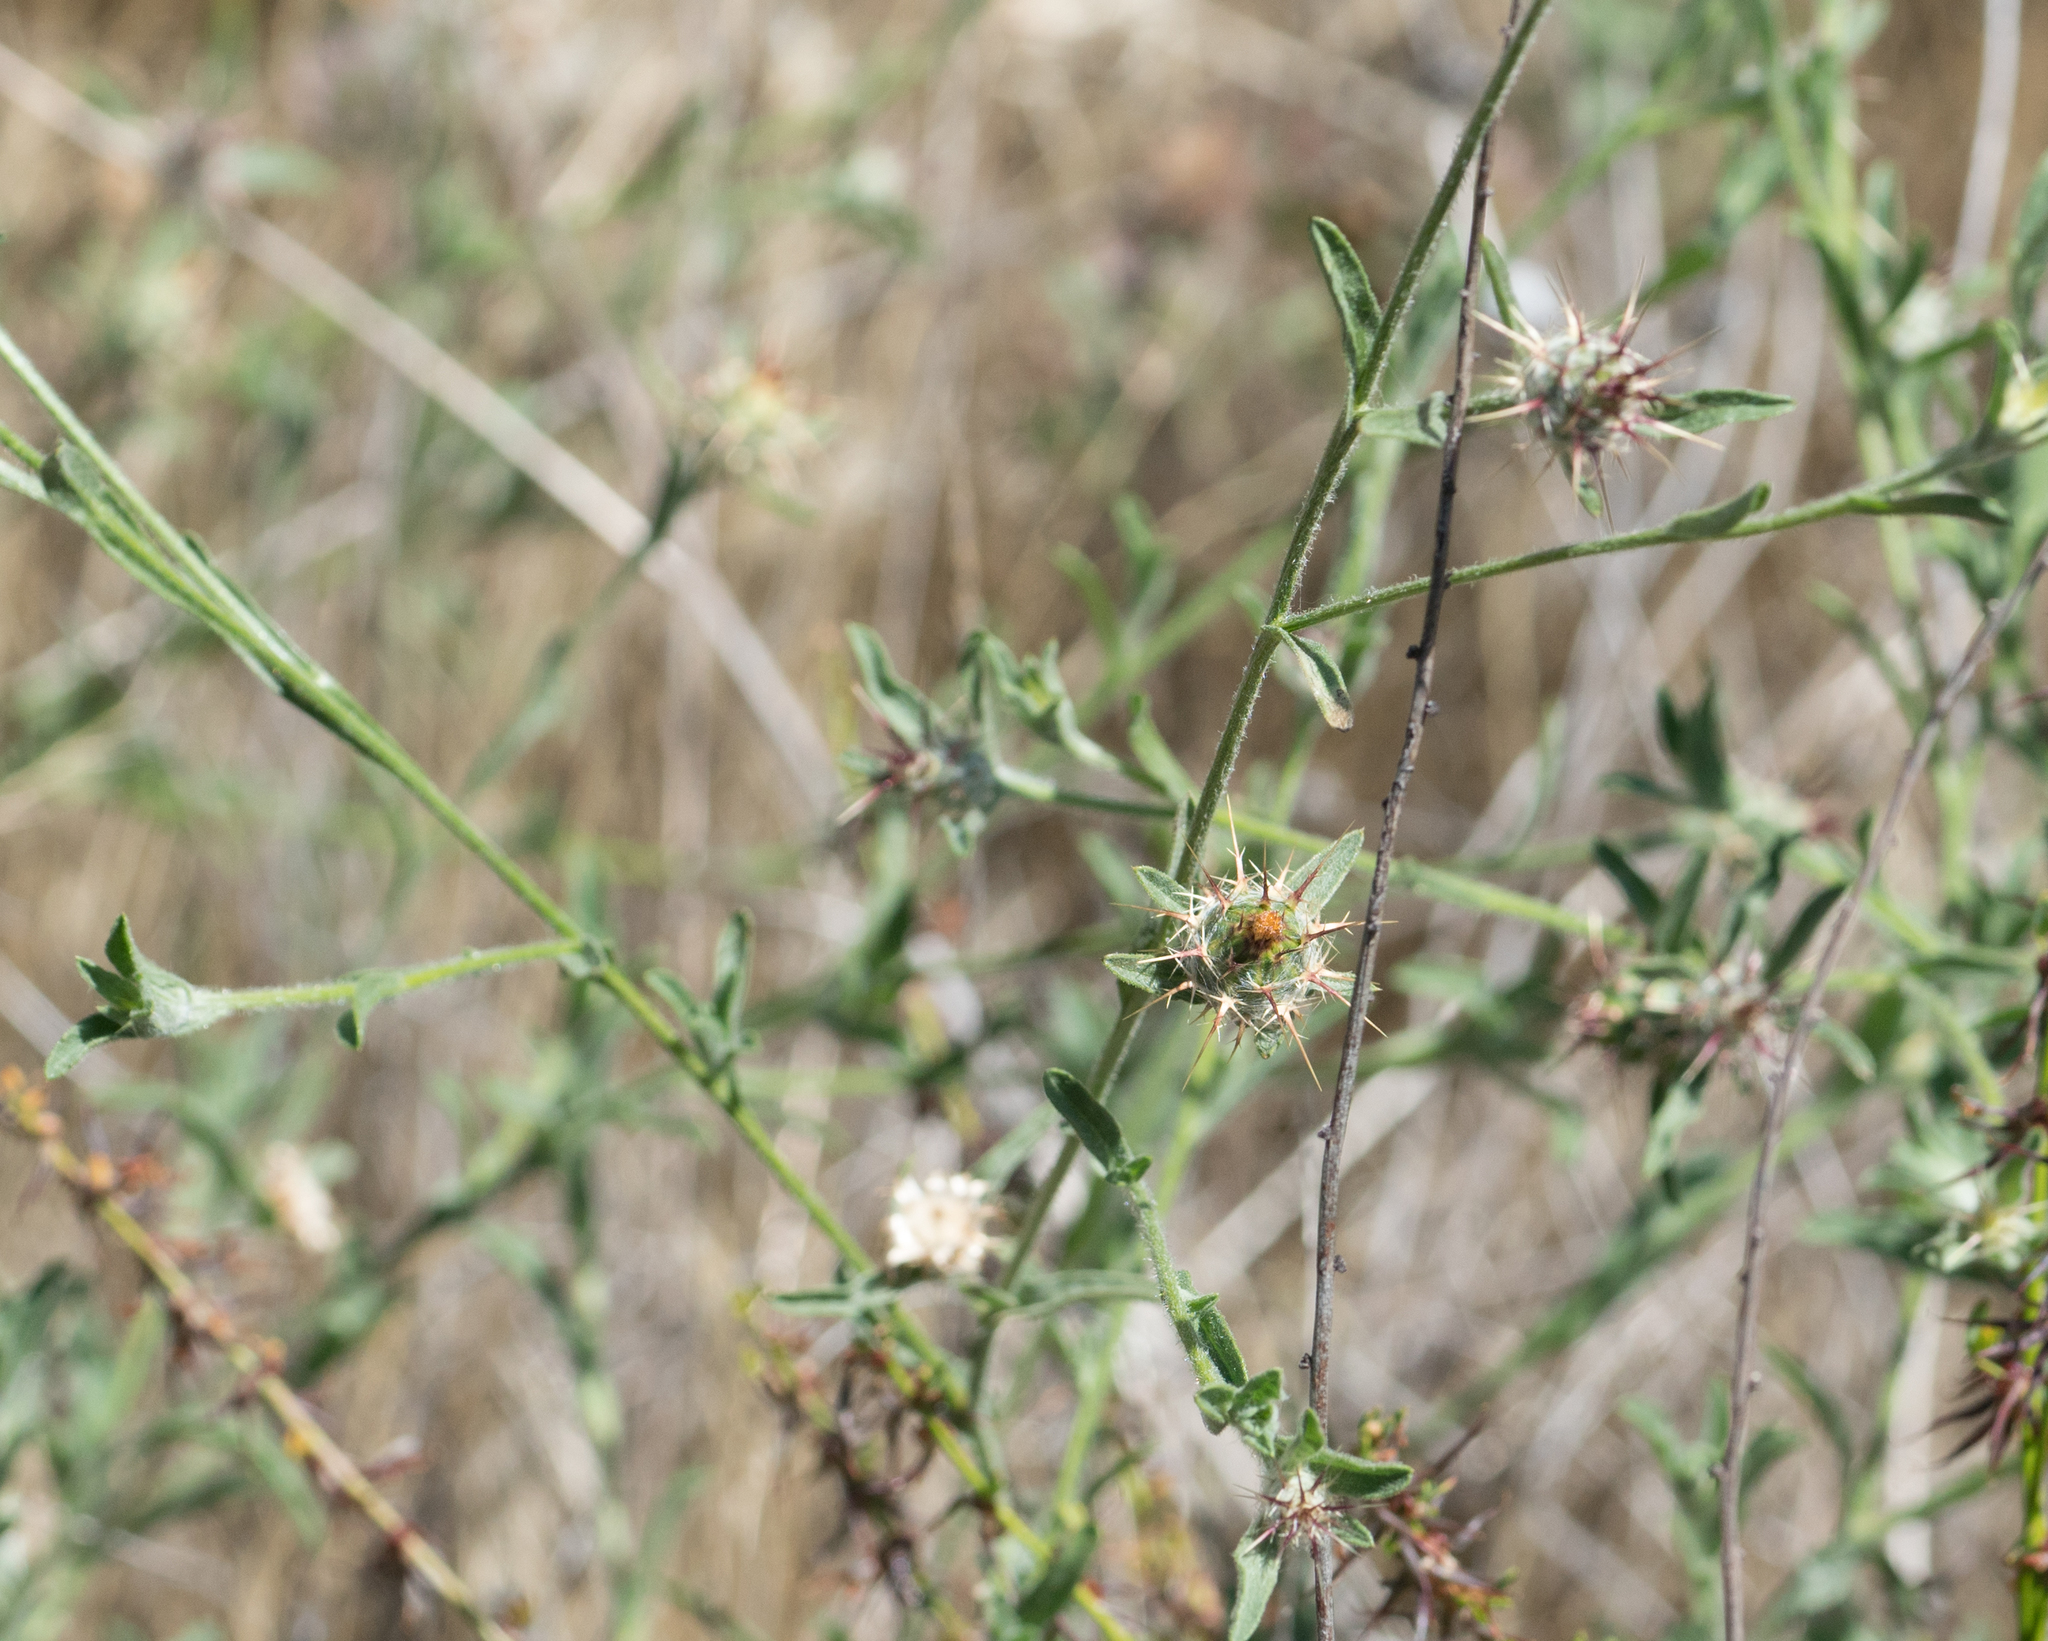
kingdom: Plantae
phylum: Tracheophyta
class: Magnoliopsida
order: Asterales
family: Asteraceae
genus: Centaurea
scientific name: Centaurea melitensis
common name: Maltese star-thistle
